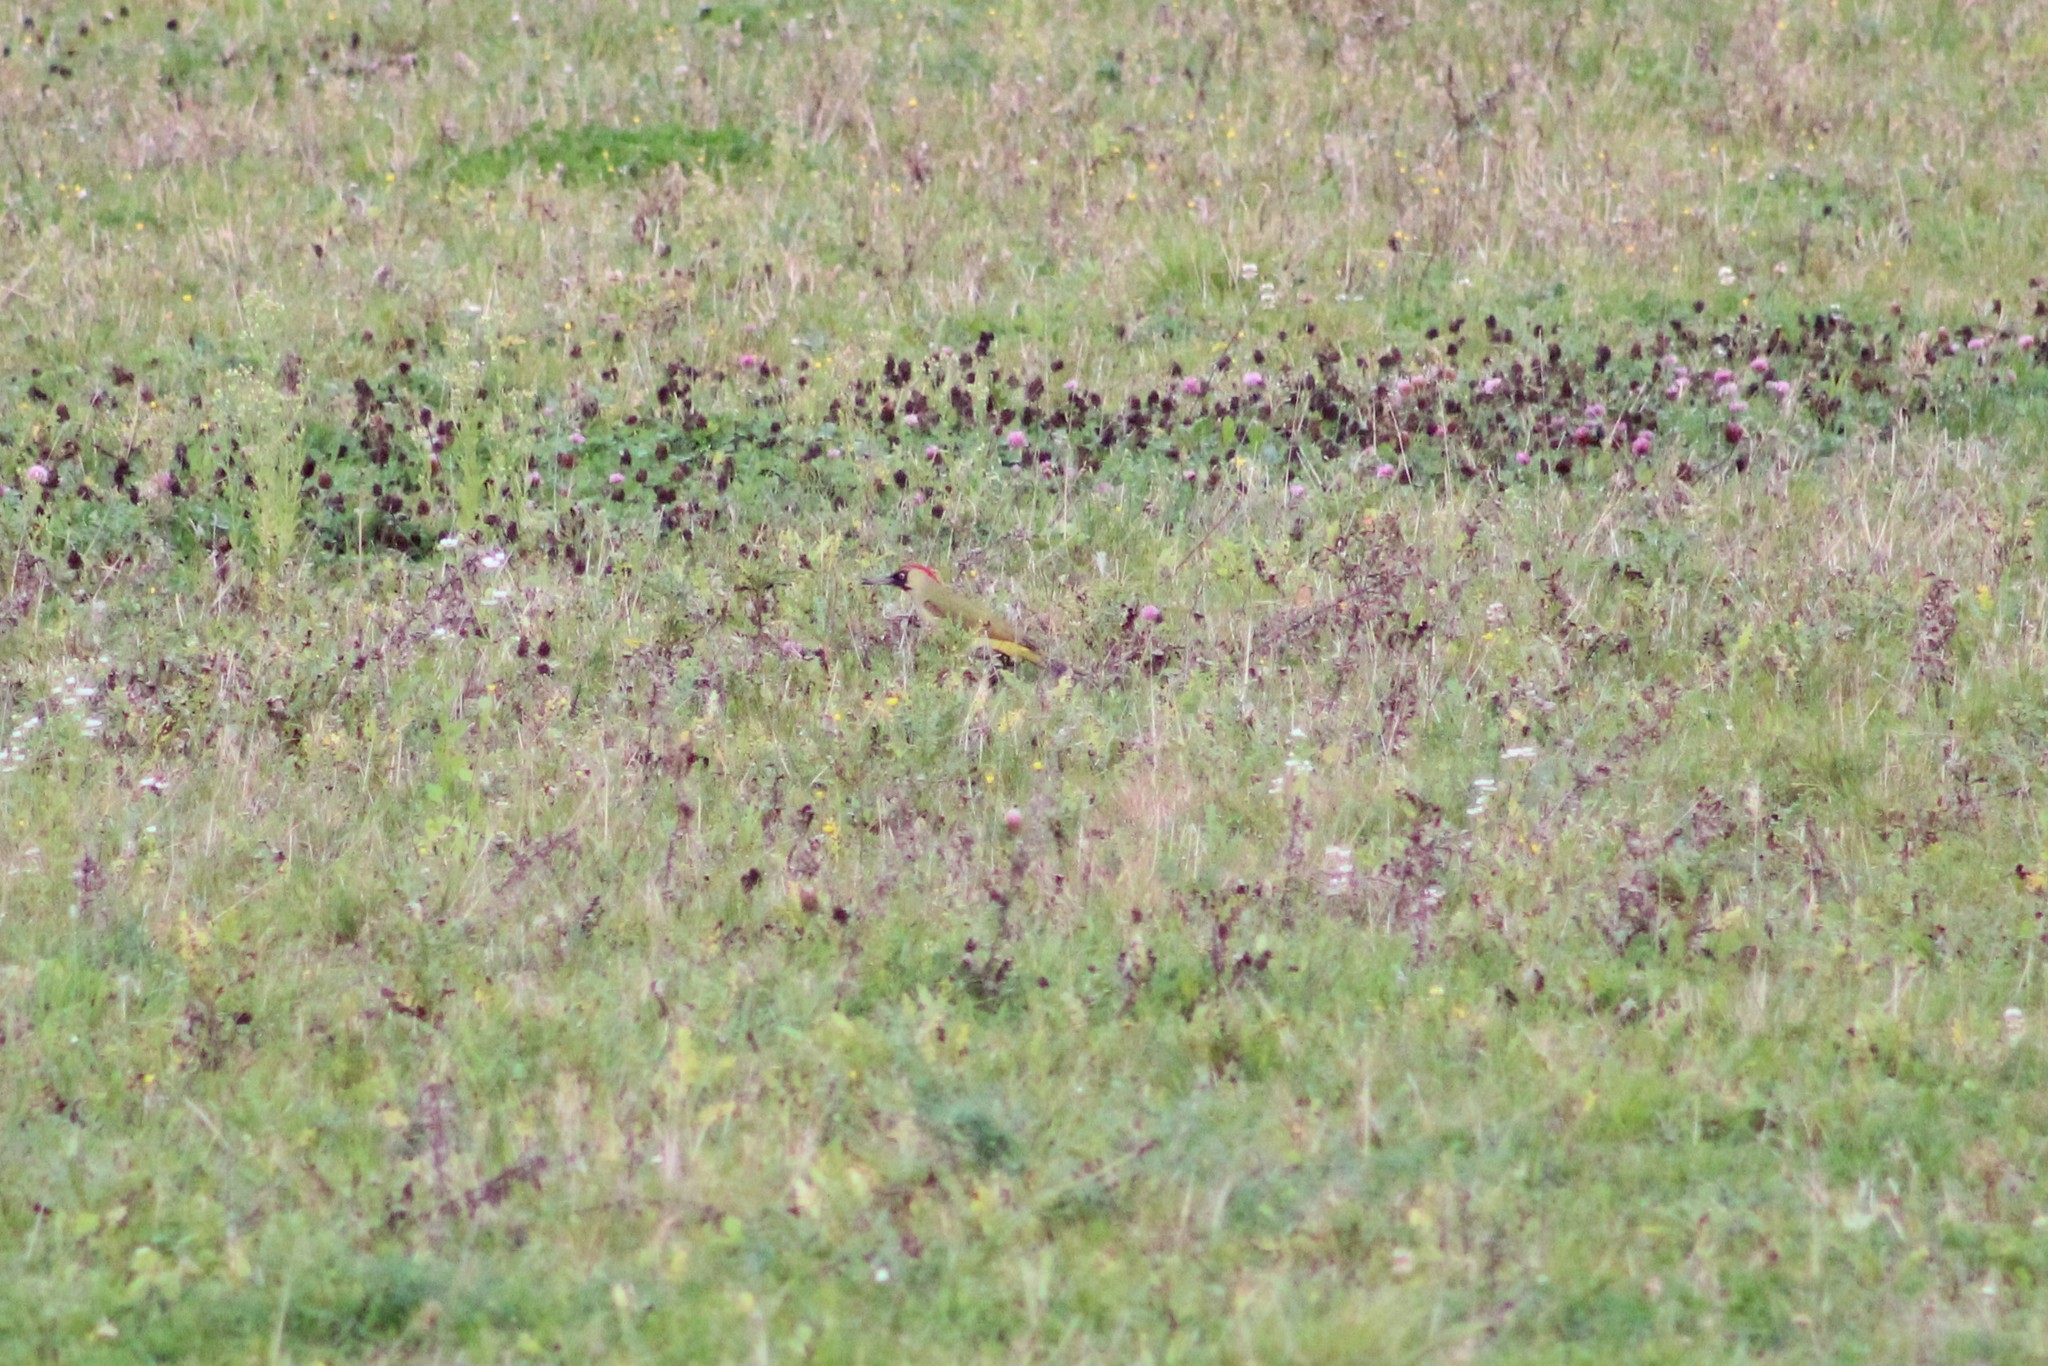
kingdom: Animalia
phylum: Chordata
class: Aves
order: Piciformes
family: Picidae
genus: Picus
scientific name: Picus viridis
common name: European green woodpecker
